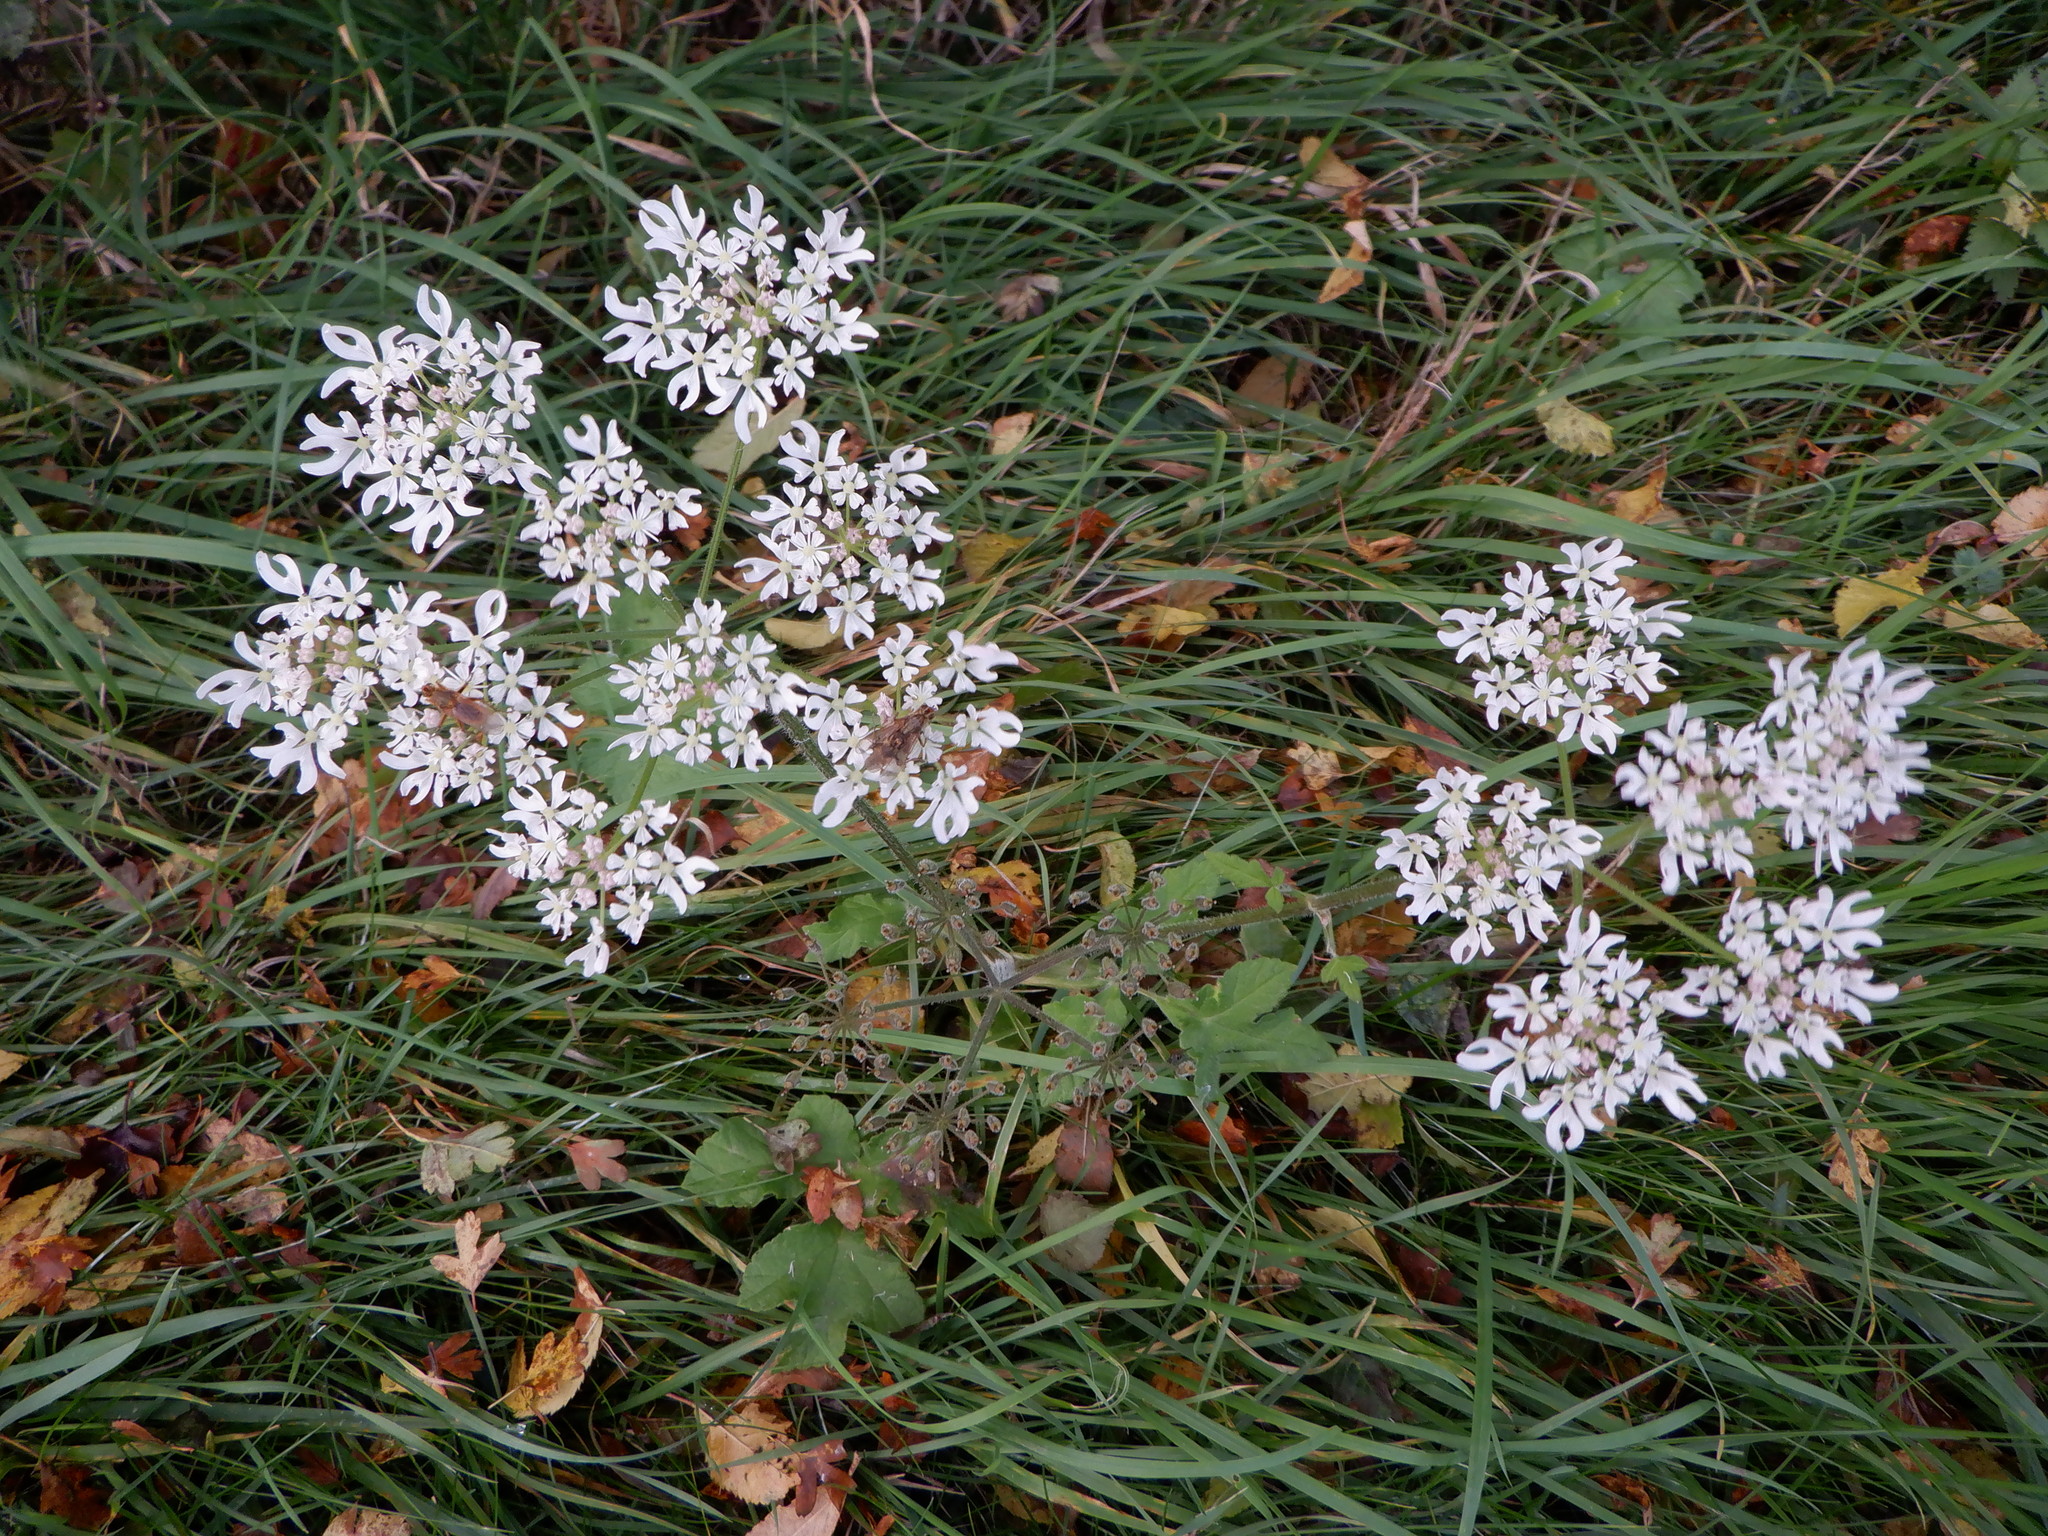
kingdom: Plantae
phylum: Tracheophyta
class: Magnoliopsida
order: Apiales
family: Apiaceae
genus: Heracleum
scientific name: Heracleum sphondylium
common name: Hogweed
